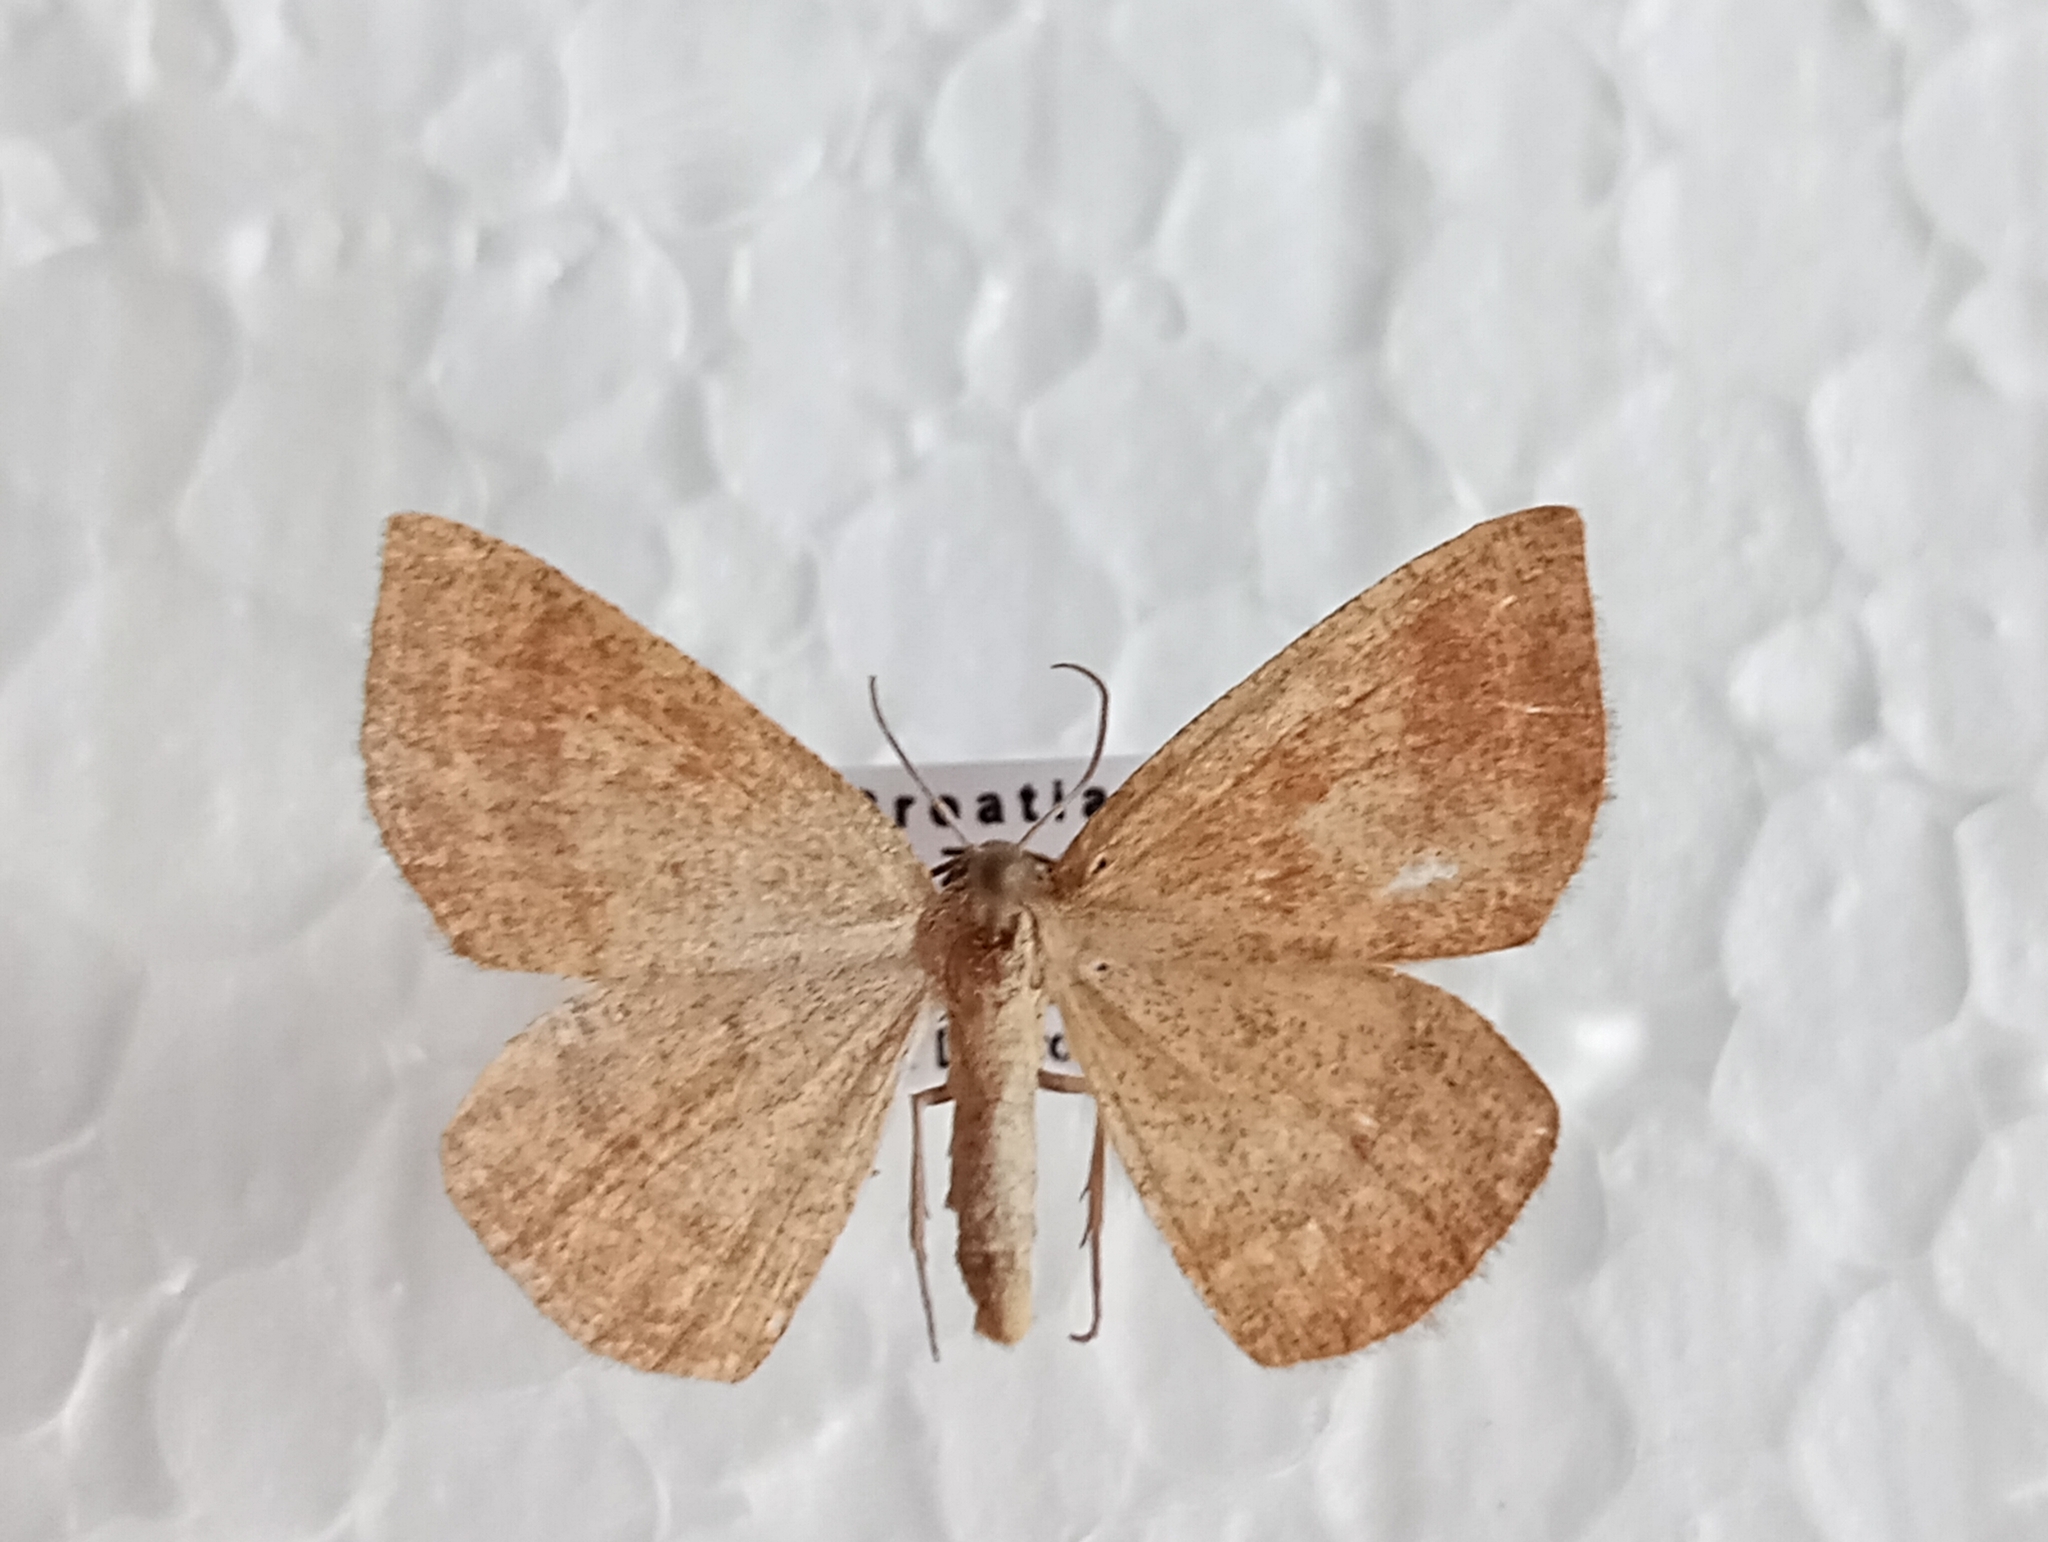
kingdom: Animalia
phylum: Arthropoda
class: Insecta
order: Lepidoptera
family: Geometridae
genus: Aplasta
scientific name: Aplasta ononaria
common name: Rest harrow
